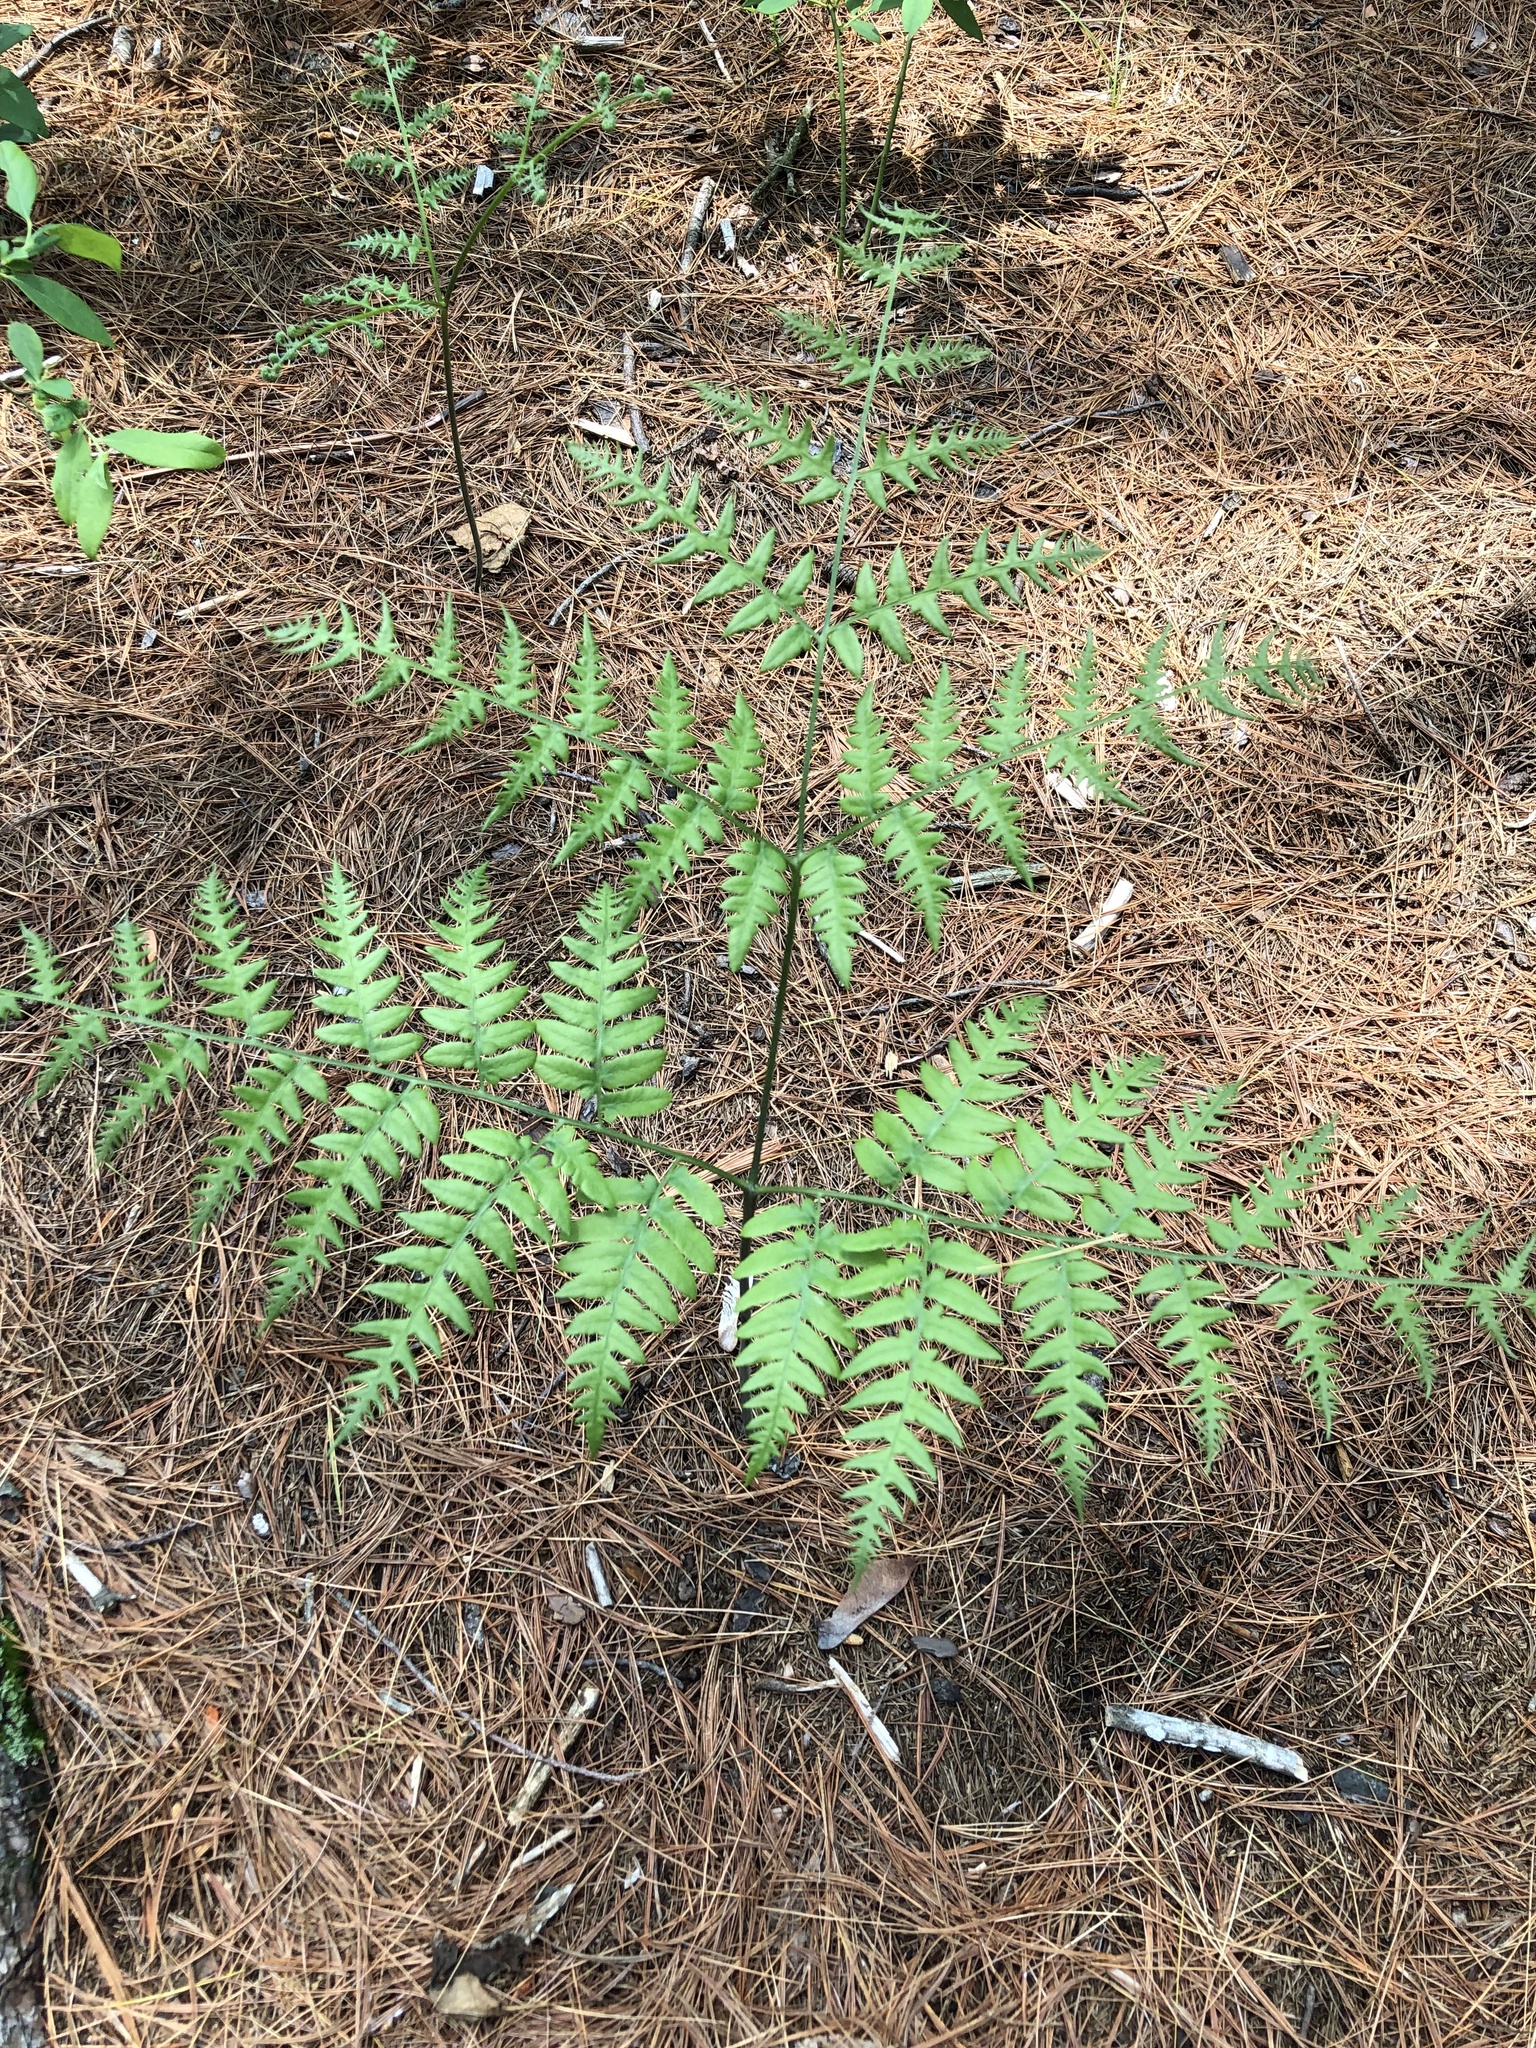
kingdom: Plantae
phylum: Tracheophyta
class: Polypodiopsida
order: Polypodiales
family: Dennstaedtiaceae
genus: Pteridium
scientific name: Pteridium aquilinum
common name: Bracken
